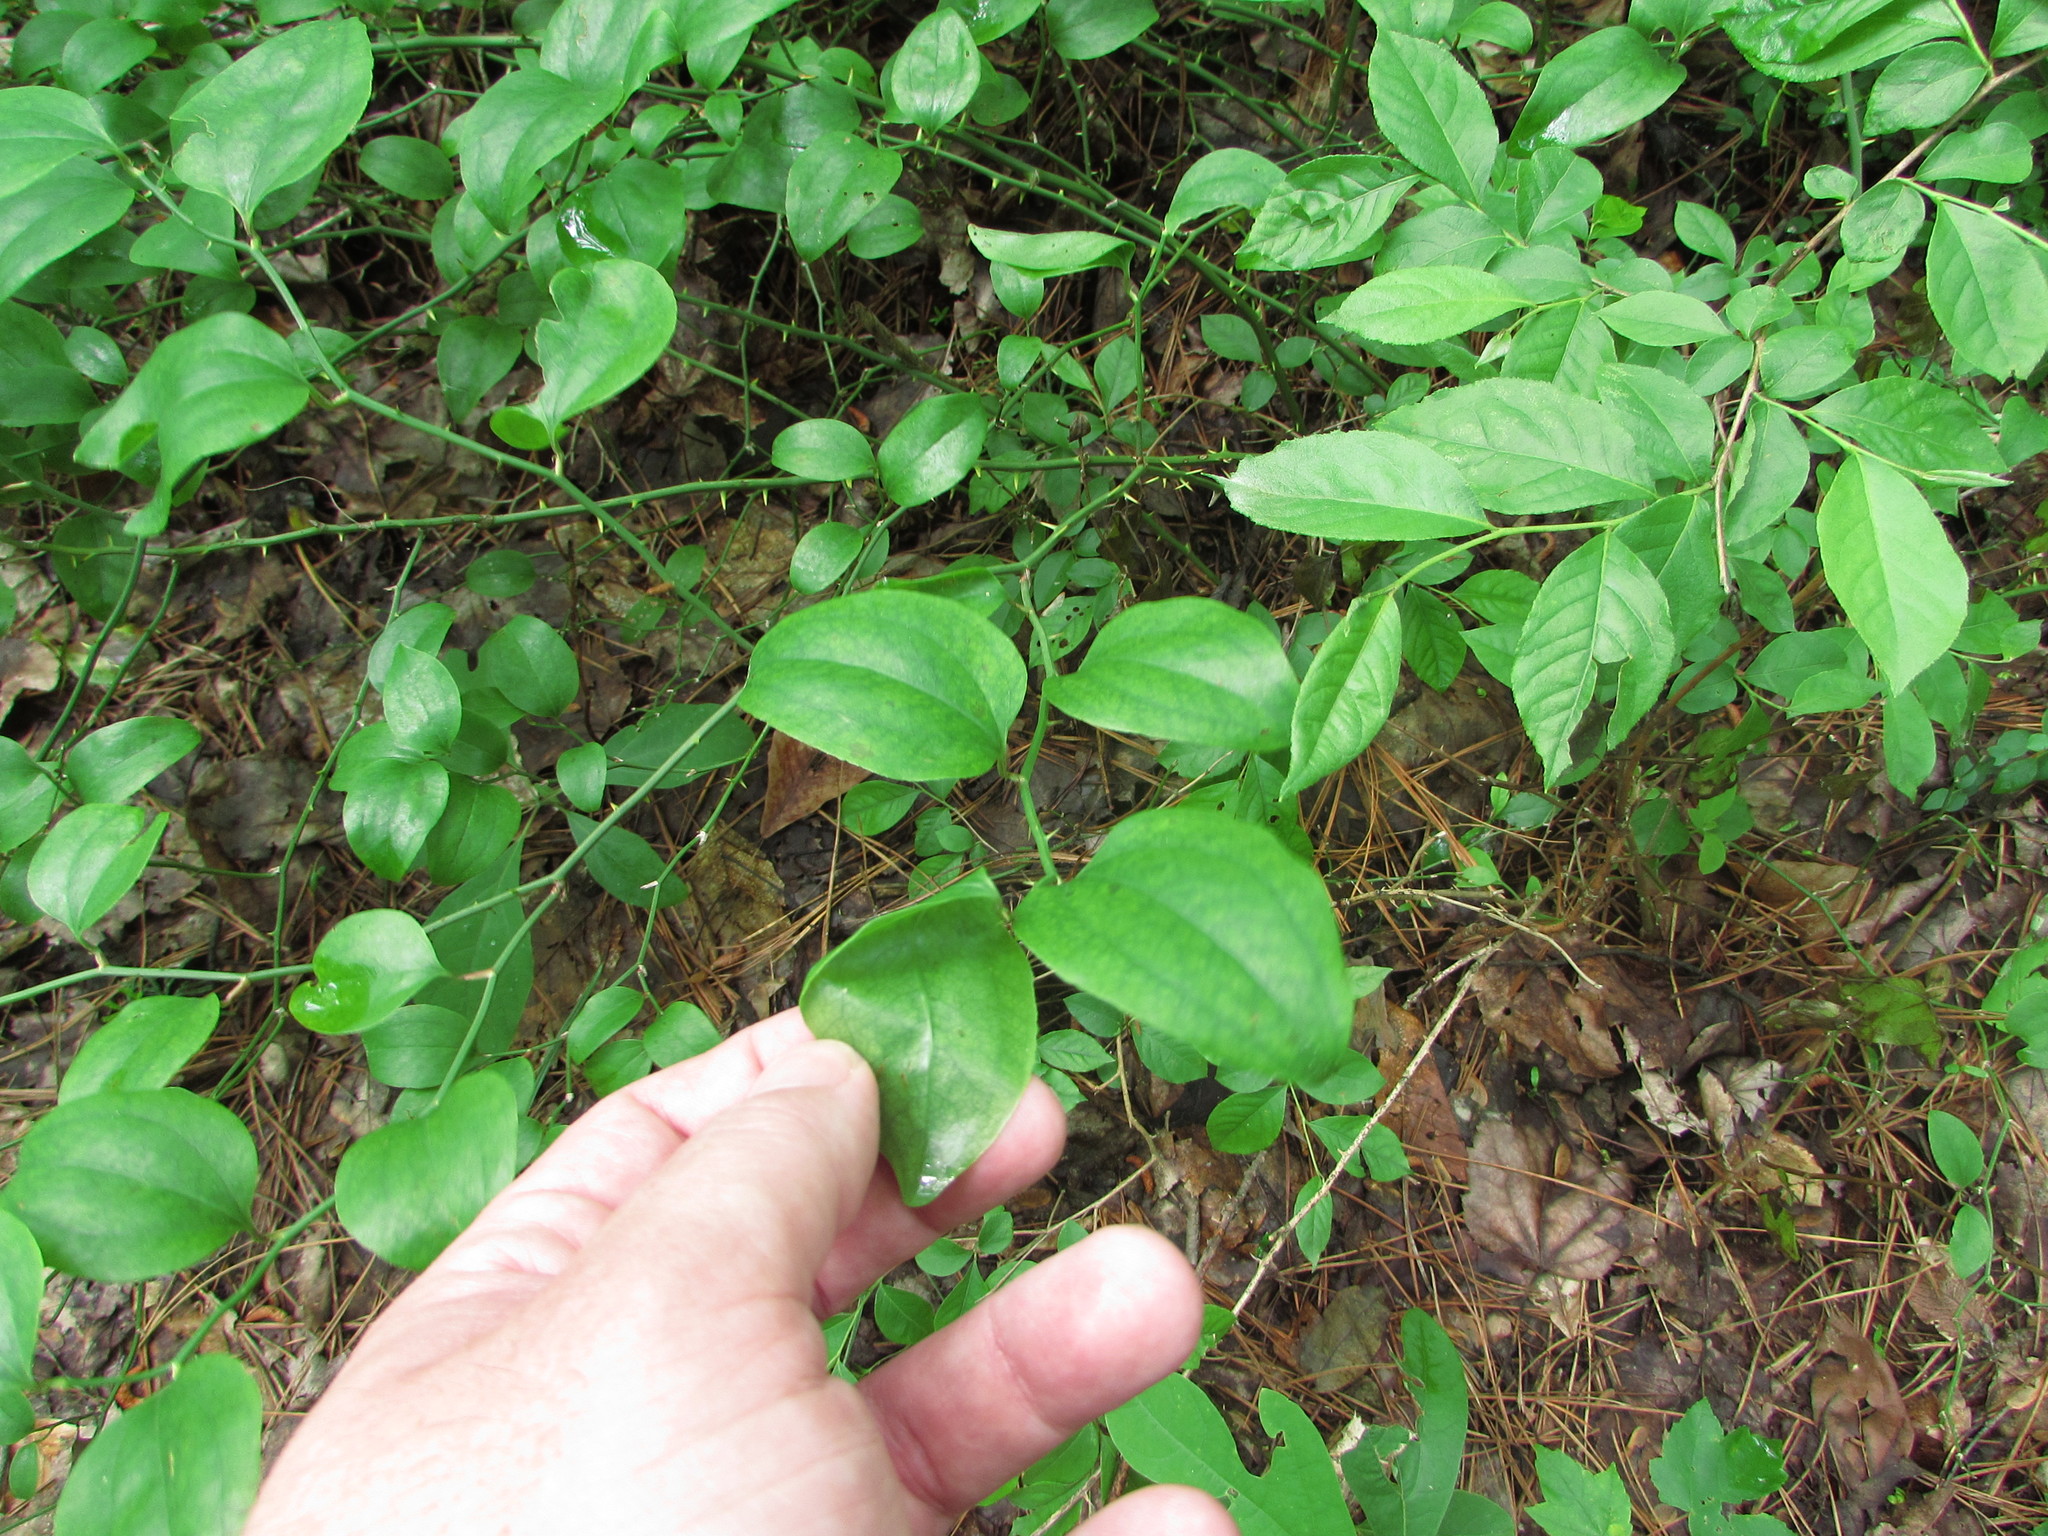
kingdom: Plantae
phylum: Tracheophyta
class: Liliopsida
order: Liliales
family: Smilacaceae
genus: Smilax
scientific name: Smilax rotundifolia
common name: Bullbriar
